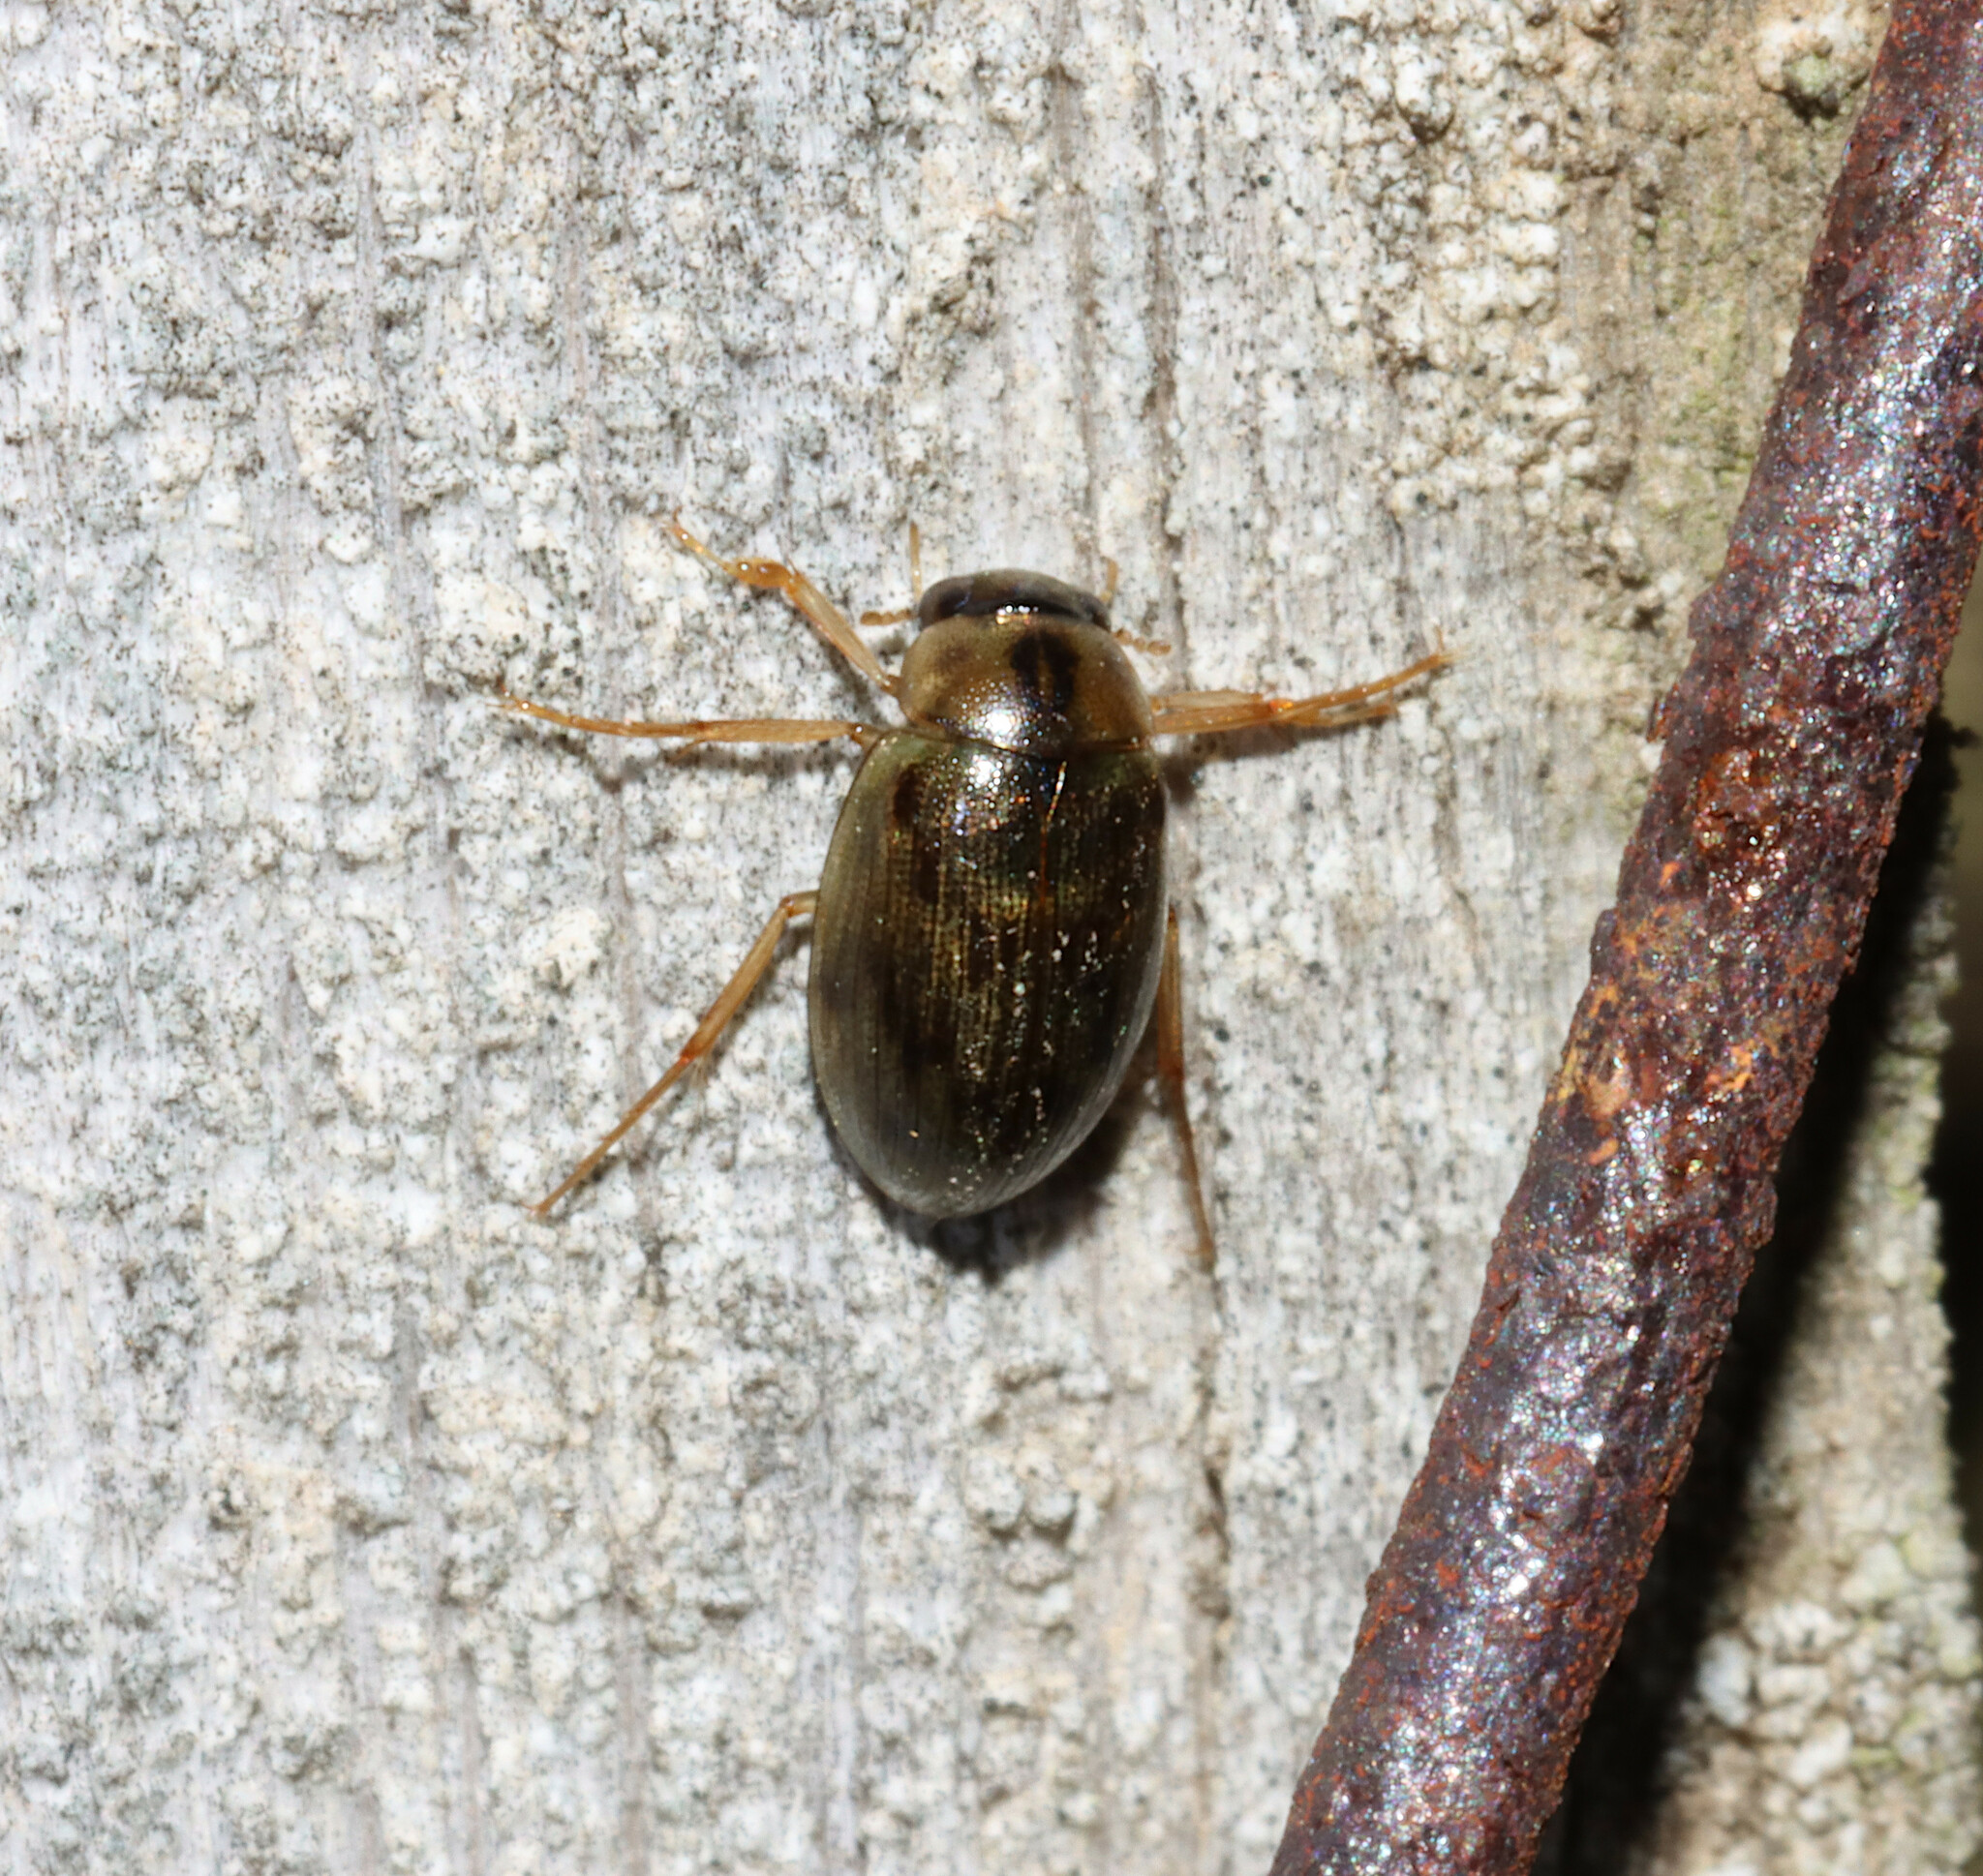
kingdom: Animalia
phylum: Arthropoda
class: Insecta
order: Coleoptera
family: Hydrophilidae
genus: Berosus
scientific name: Berosus
